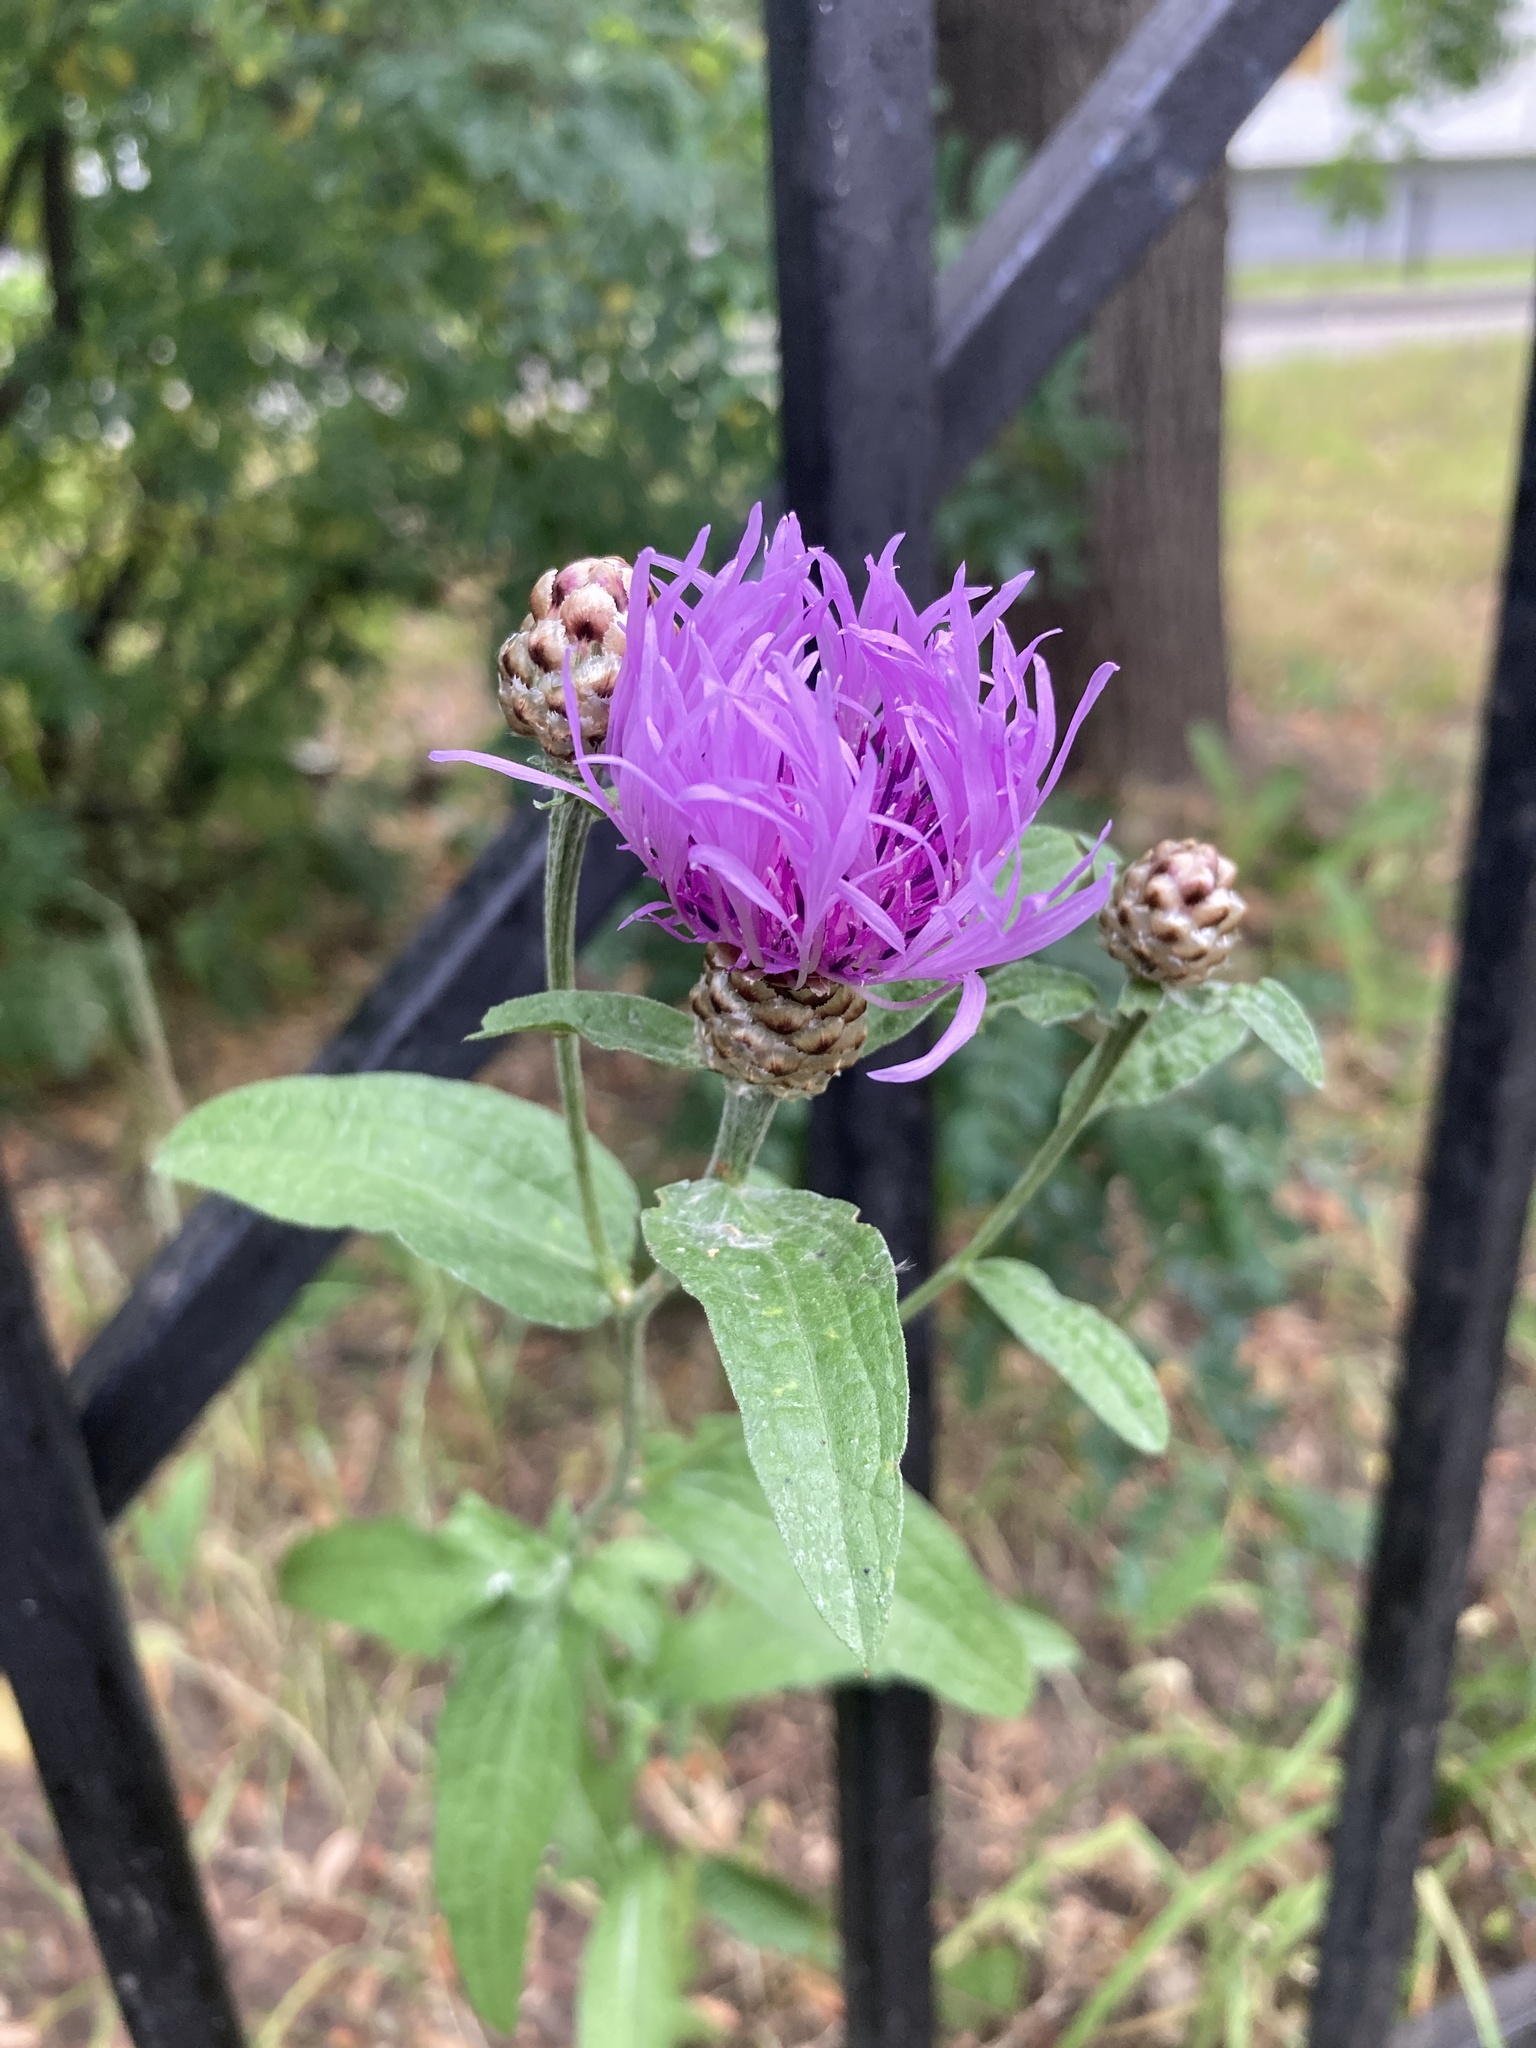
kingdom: Plantae
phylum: Tracheophyta
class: Magnoliopsida
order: Asterales
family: Asteraceae
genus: Centaurea
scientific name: Centaurea jacea
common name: Brown knapweed
